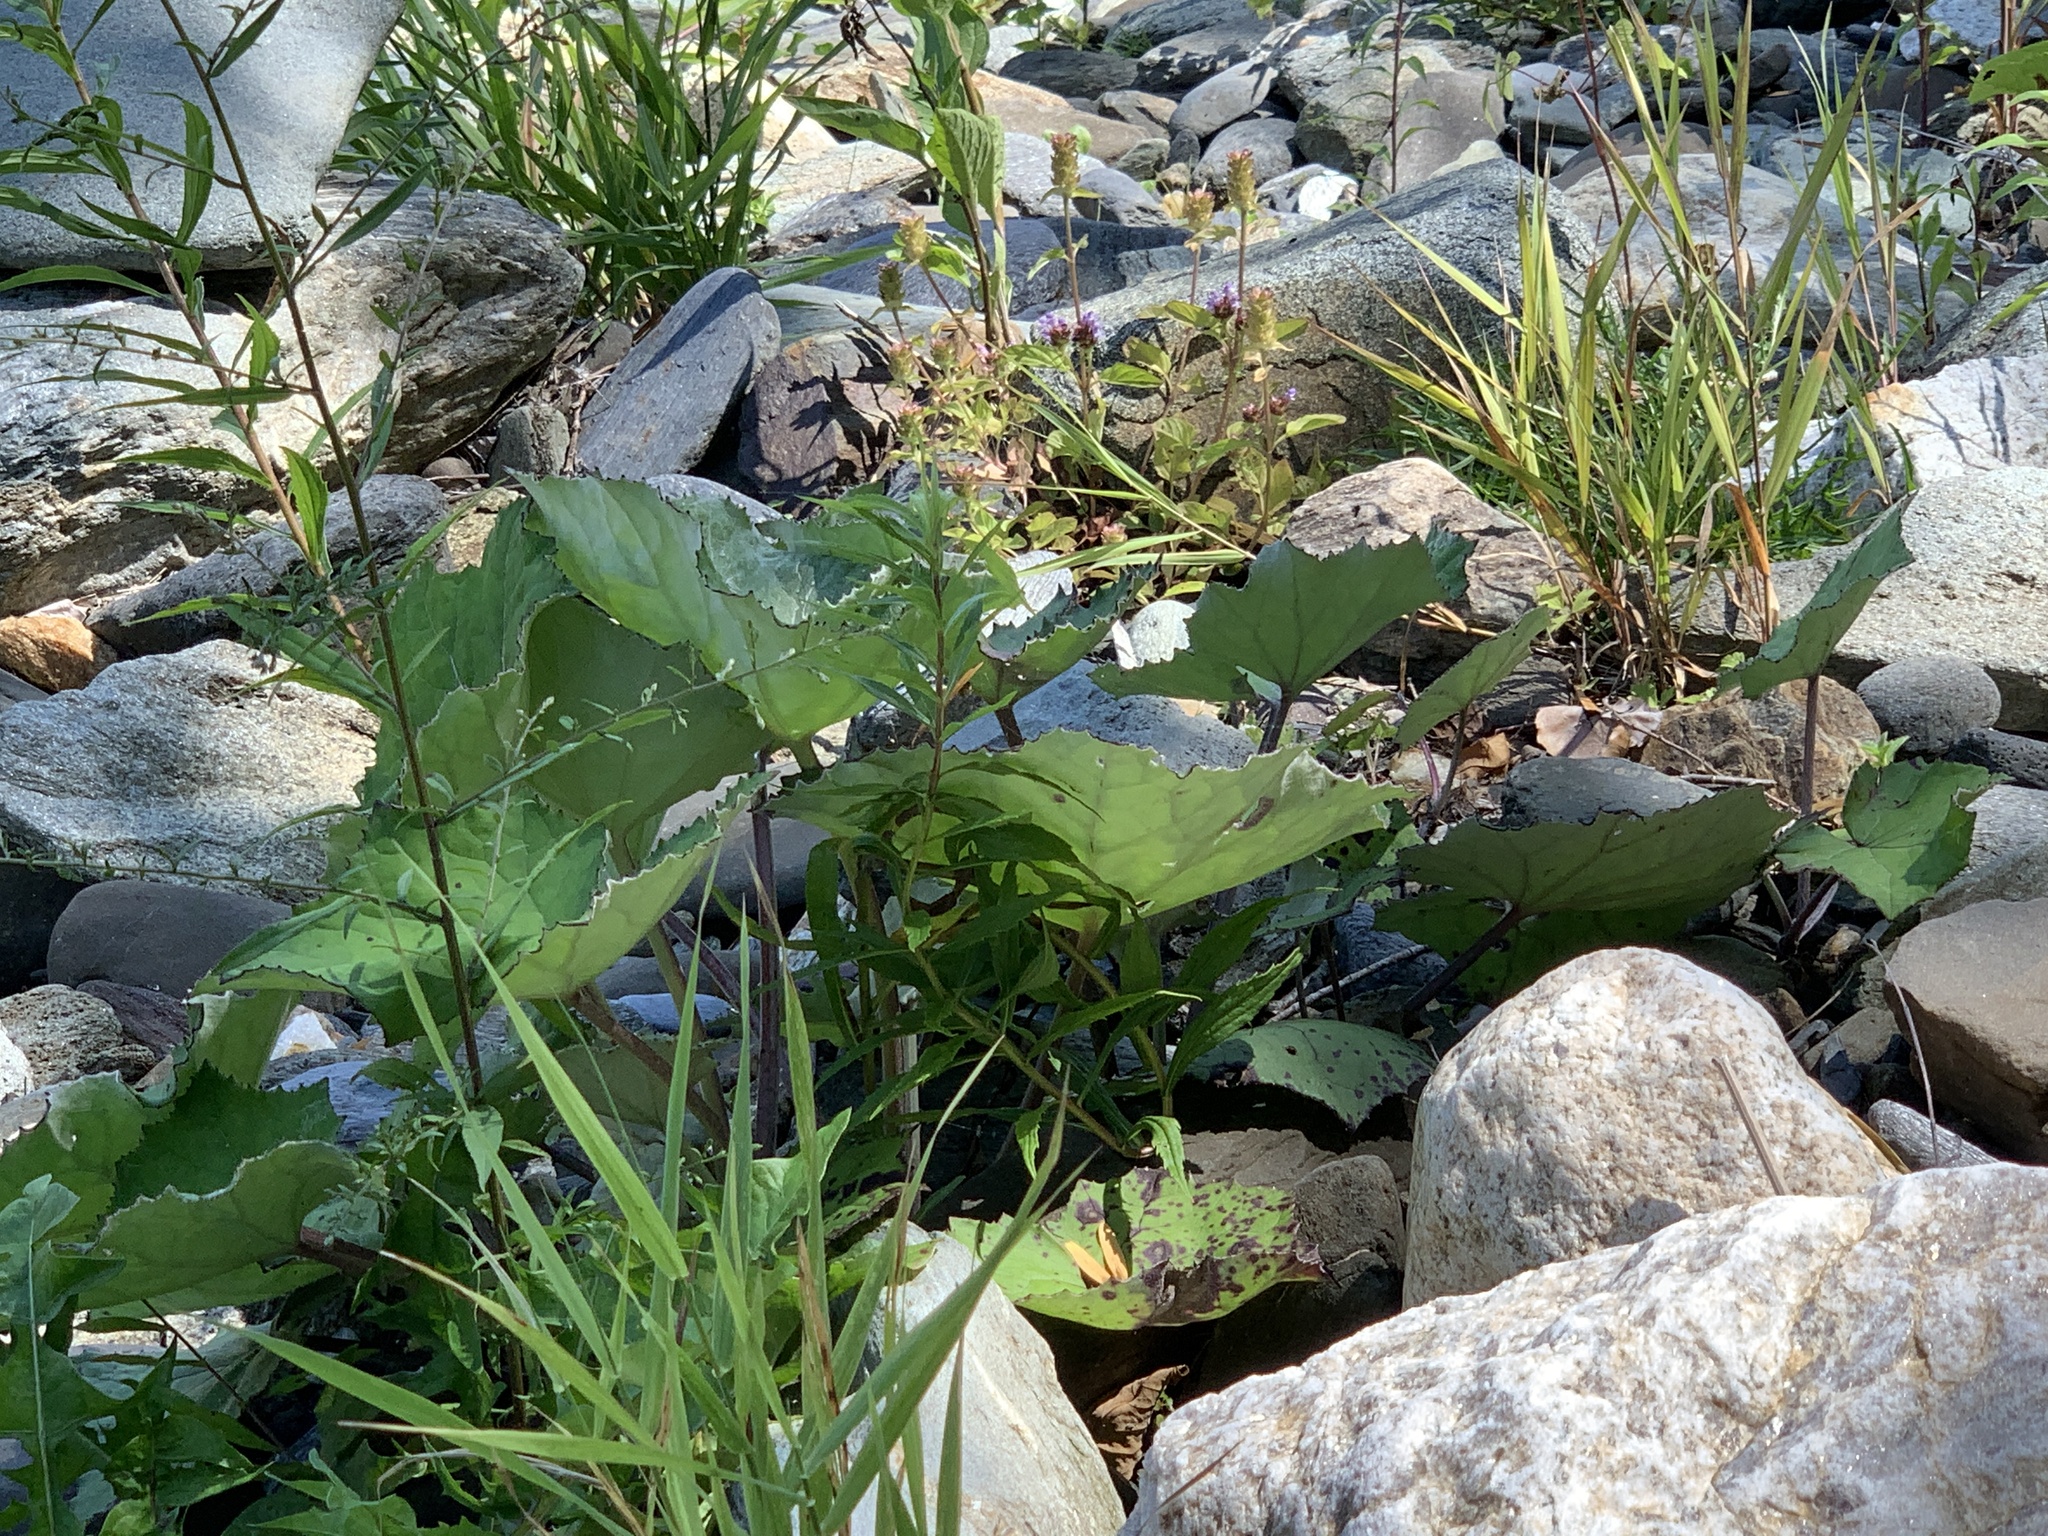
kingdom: Plantae
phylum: Tracheophyta
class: Magnoliopsida
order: Asterales
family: Asteraceae
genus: Tussilago
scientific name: Tussilago farfara
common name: Coltsfoot
